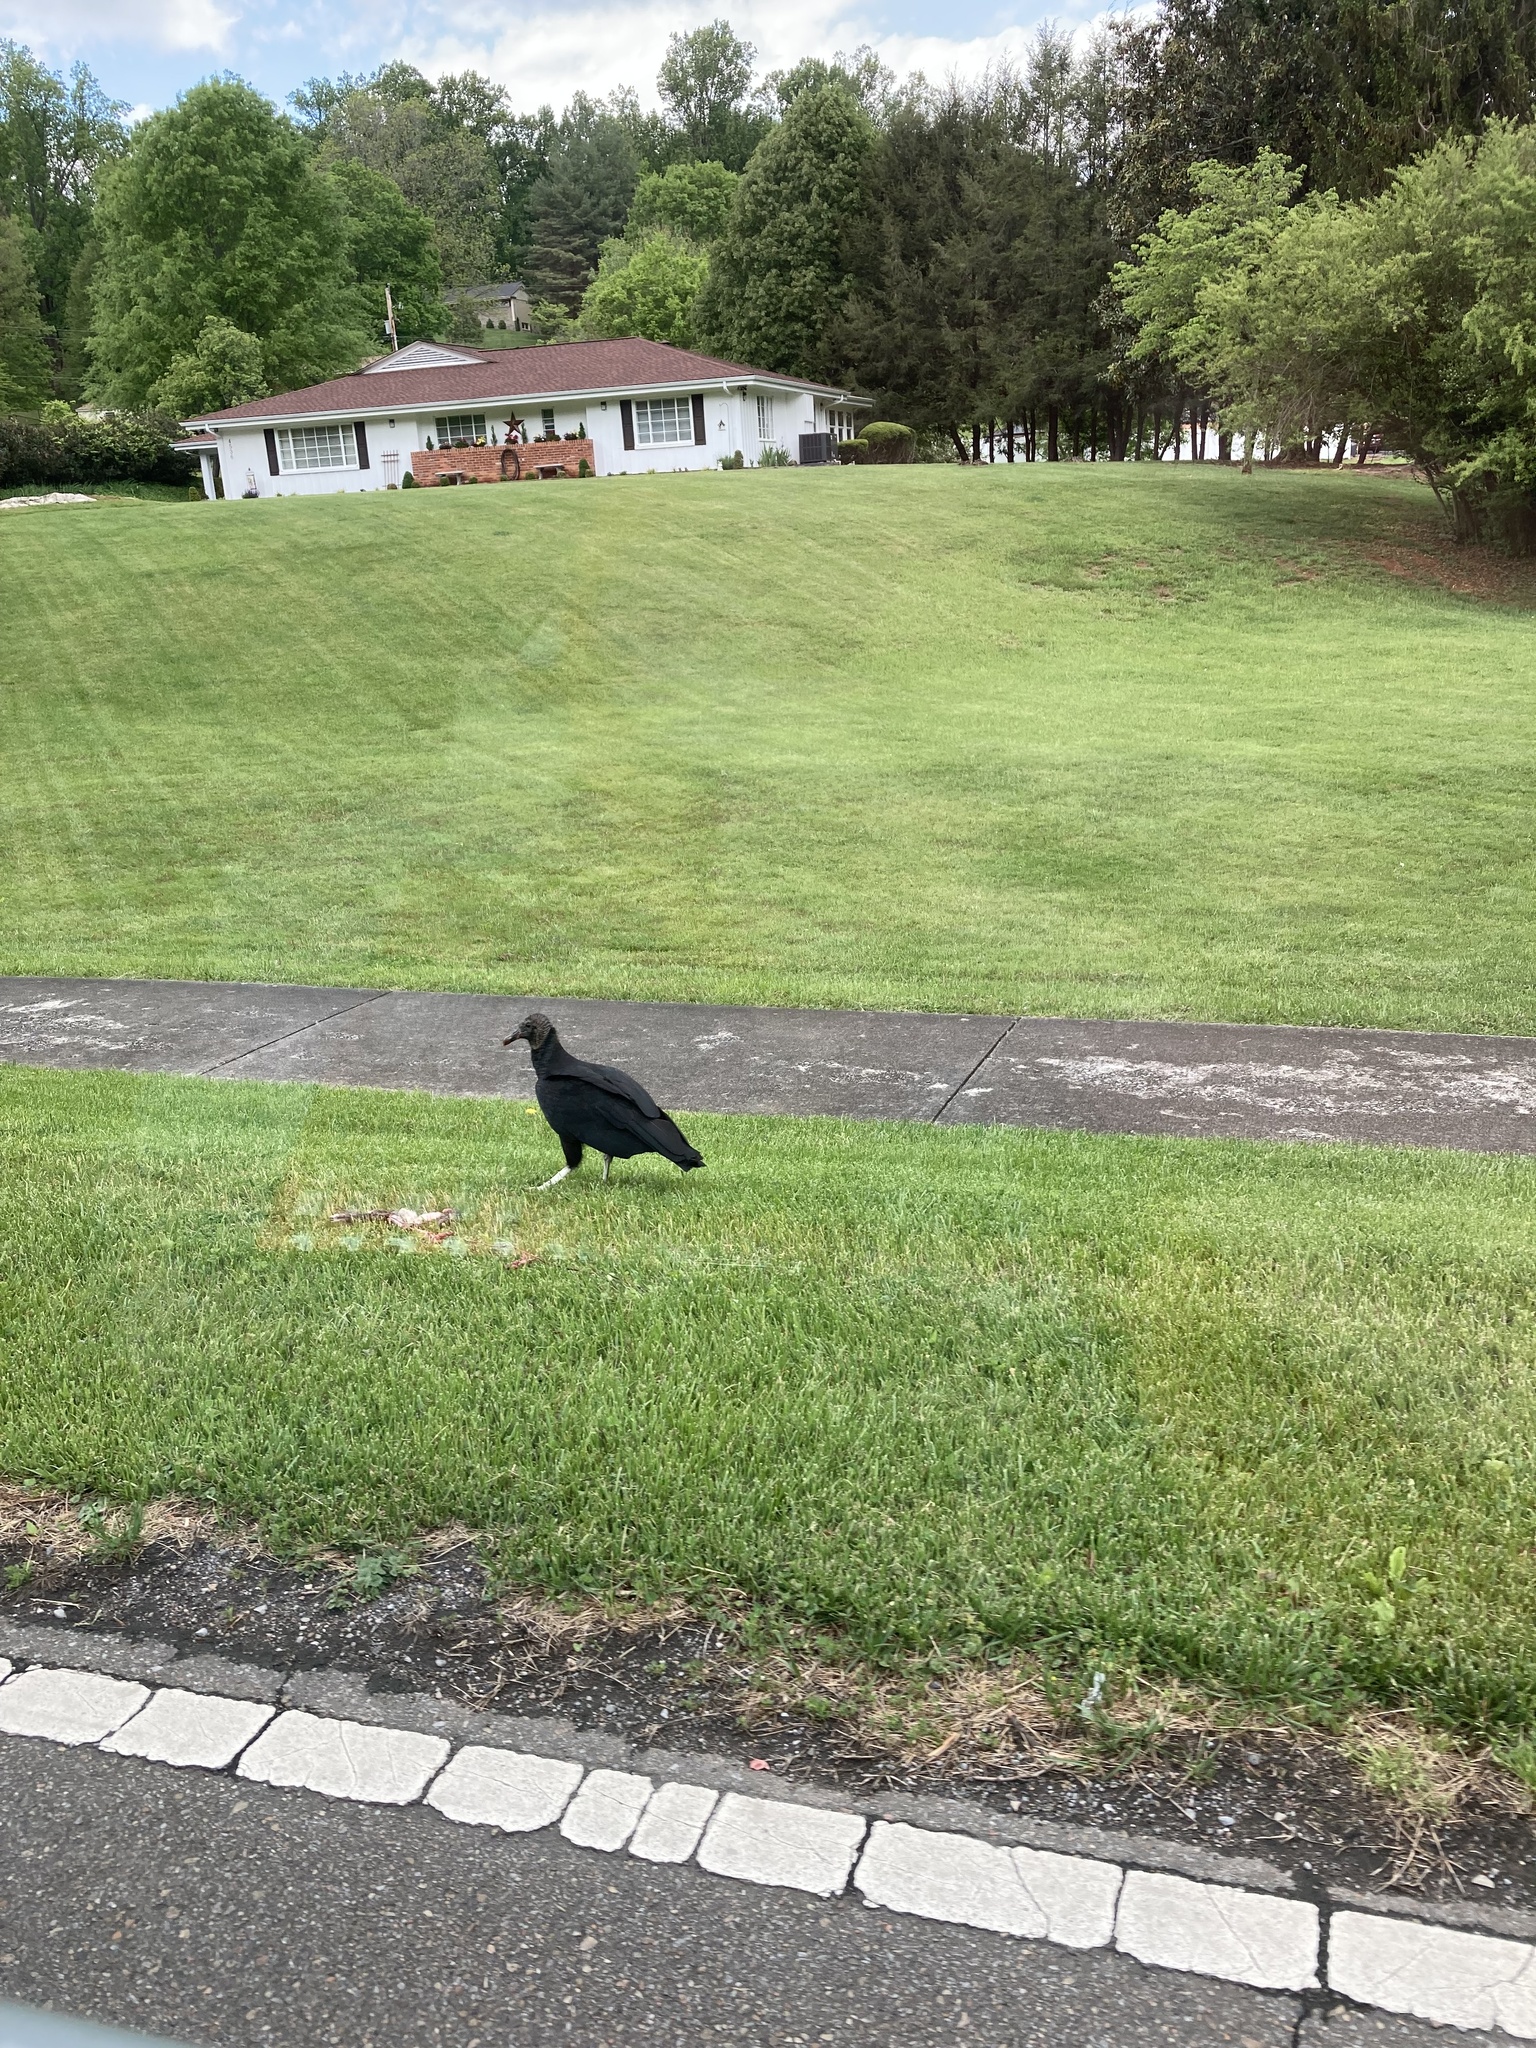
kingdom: Animalia
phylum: Chordata
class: Aves
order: Accipitriformes
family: Cathartidae
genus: Coragyps
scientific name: Coragyps atratus
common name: Black vulture
